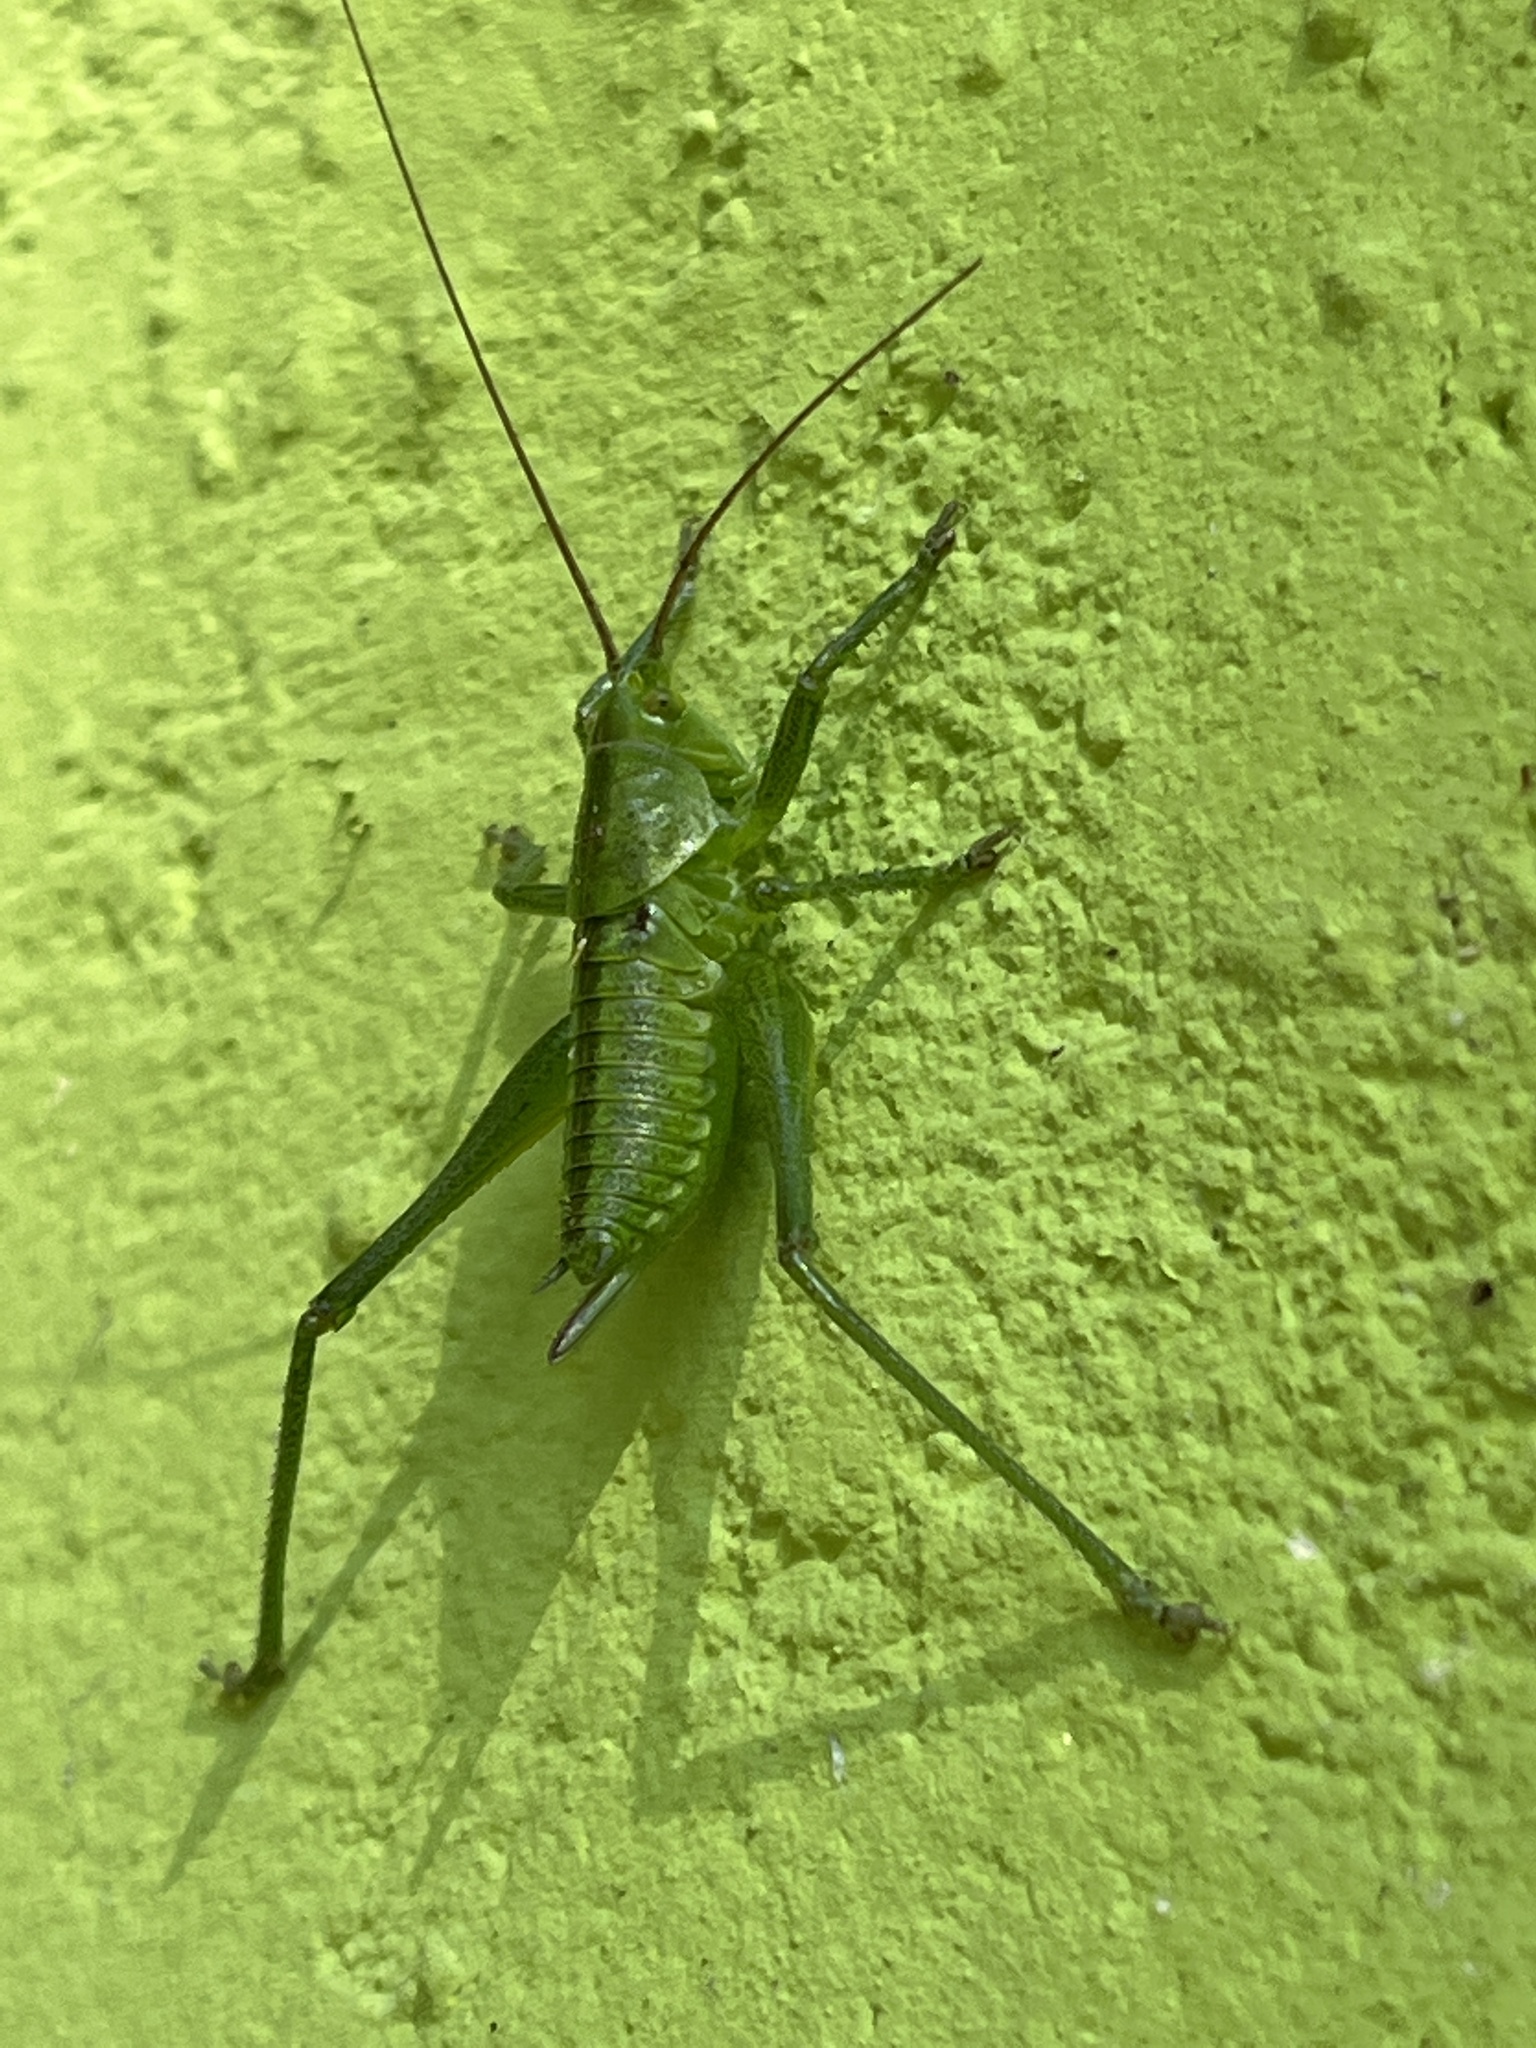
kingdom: Animalia
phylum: Arthropoda
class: Insecta
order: Orthoptera
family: Tettigoniidae
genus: Tettigonia
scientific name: Tettigonia viridissima
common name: Great green bush-cricket
